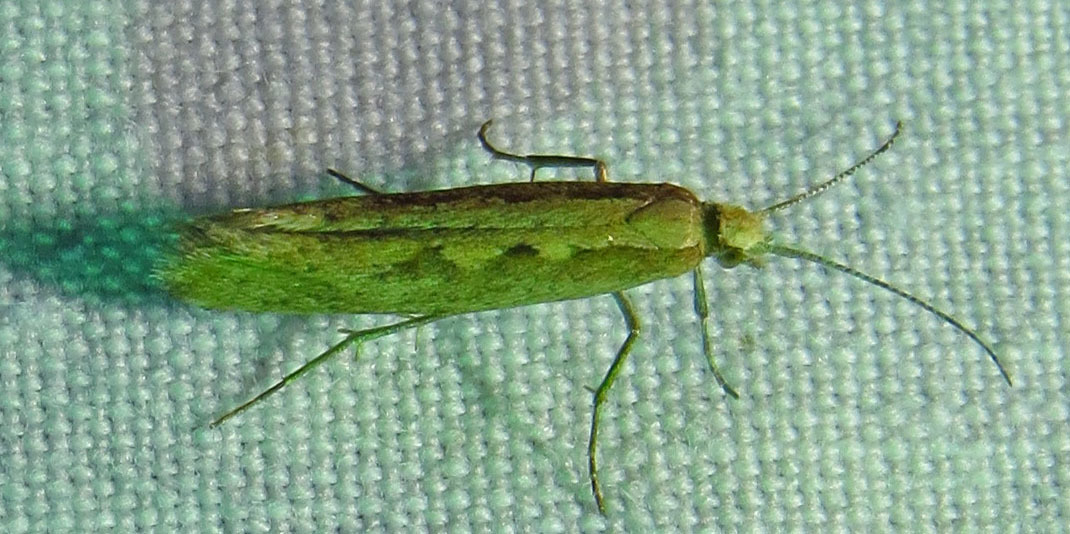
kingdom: Animalia
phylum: Arthropoda
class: Insecta
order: Lepidoptera
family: Plutellidae
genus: Plutella
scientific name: Plutella xylostella
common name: Diamond-back moth
